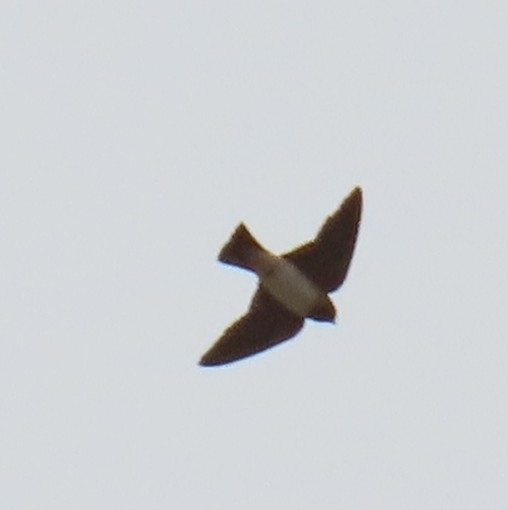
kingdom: Animalia
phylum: Chordata
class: Aves
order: Passeriformes
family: Hirundinidae
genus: Petrochelidon
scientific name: Petrochelidon pyrrhonota
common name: American cliff swallow
